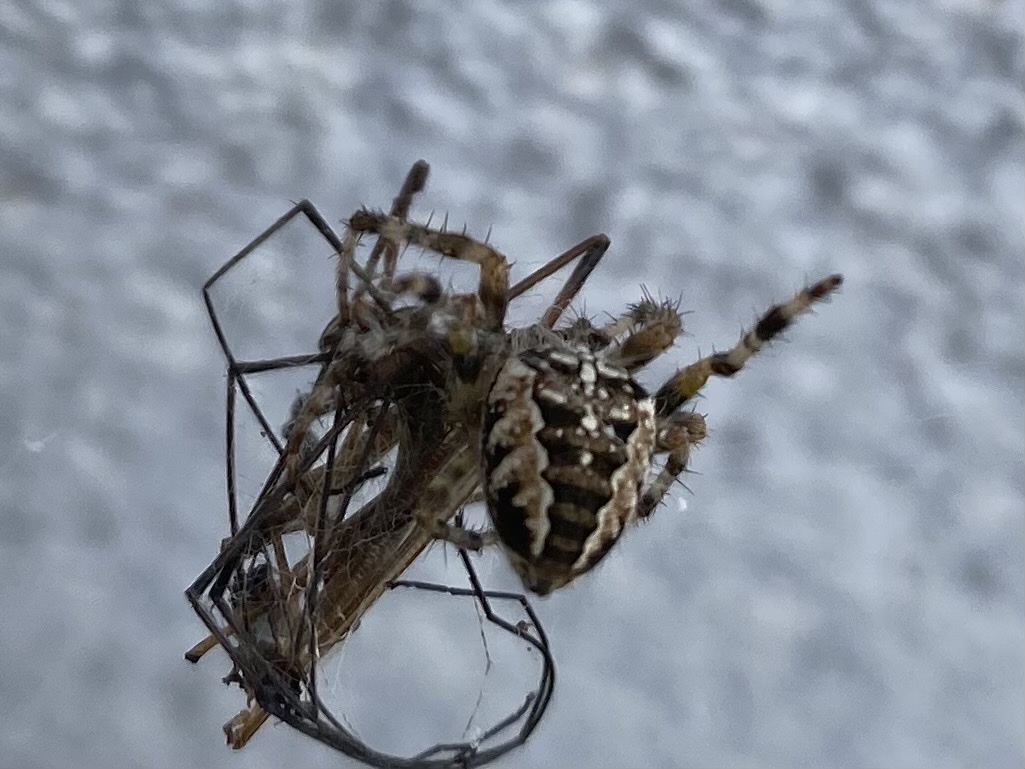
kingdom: Animalia
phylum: Arthropoda
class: Arachnida
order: Araneae
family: Araneidae
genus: Araneus
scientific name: Araneus diadematus
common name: Cross orbweaver
